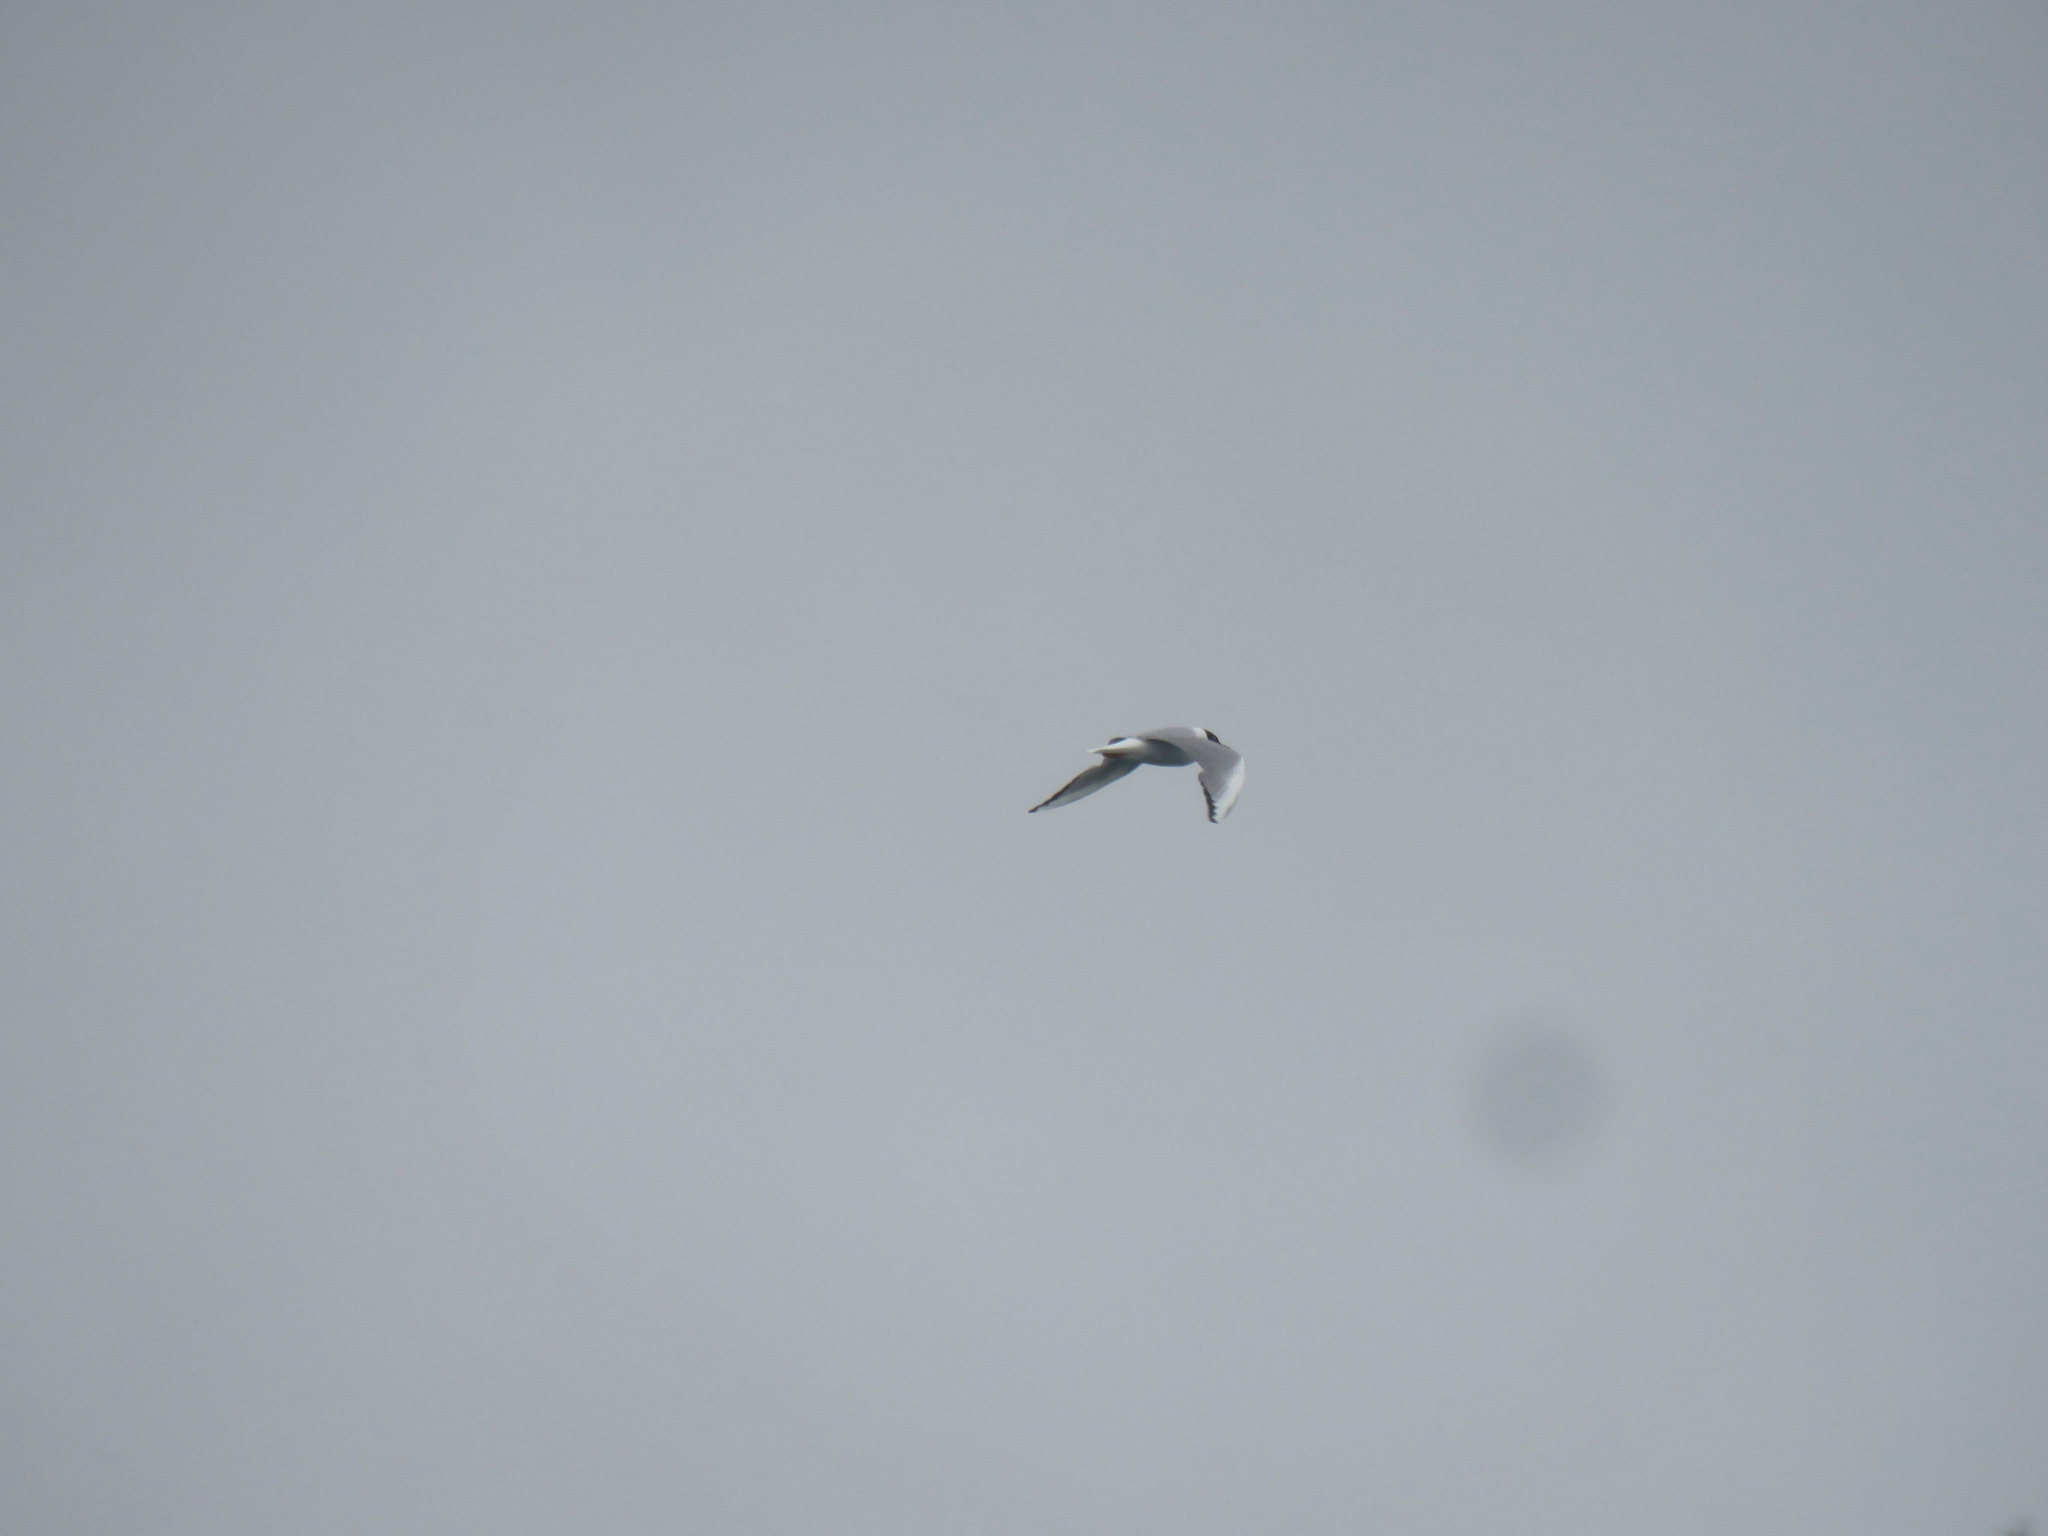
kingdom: Animalia
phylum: Chordata
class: Aves
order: Charadriiformes
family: Laridae
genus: Chroicocephalus
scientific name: Chroicocephalus philadelphia
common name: Bonaparte's gull
